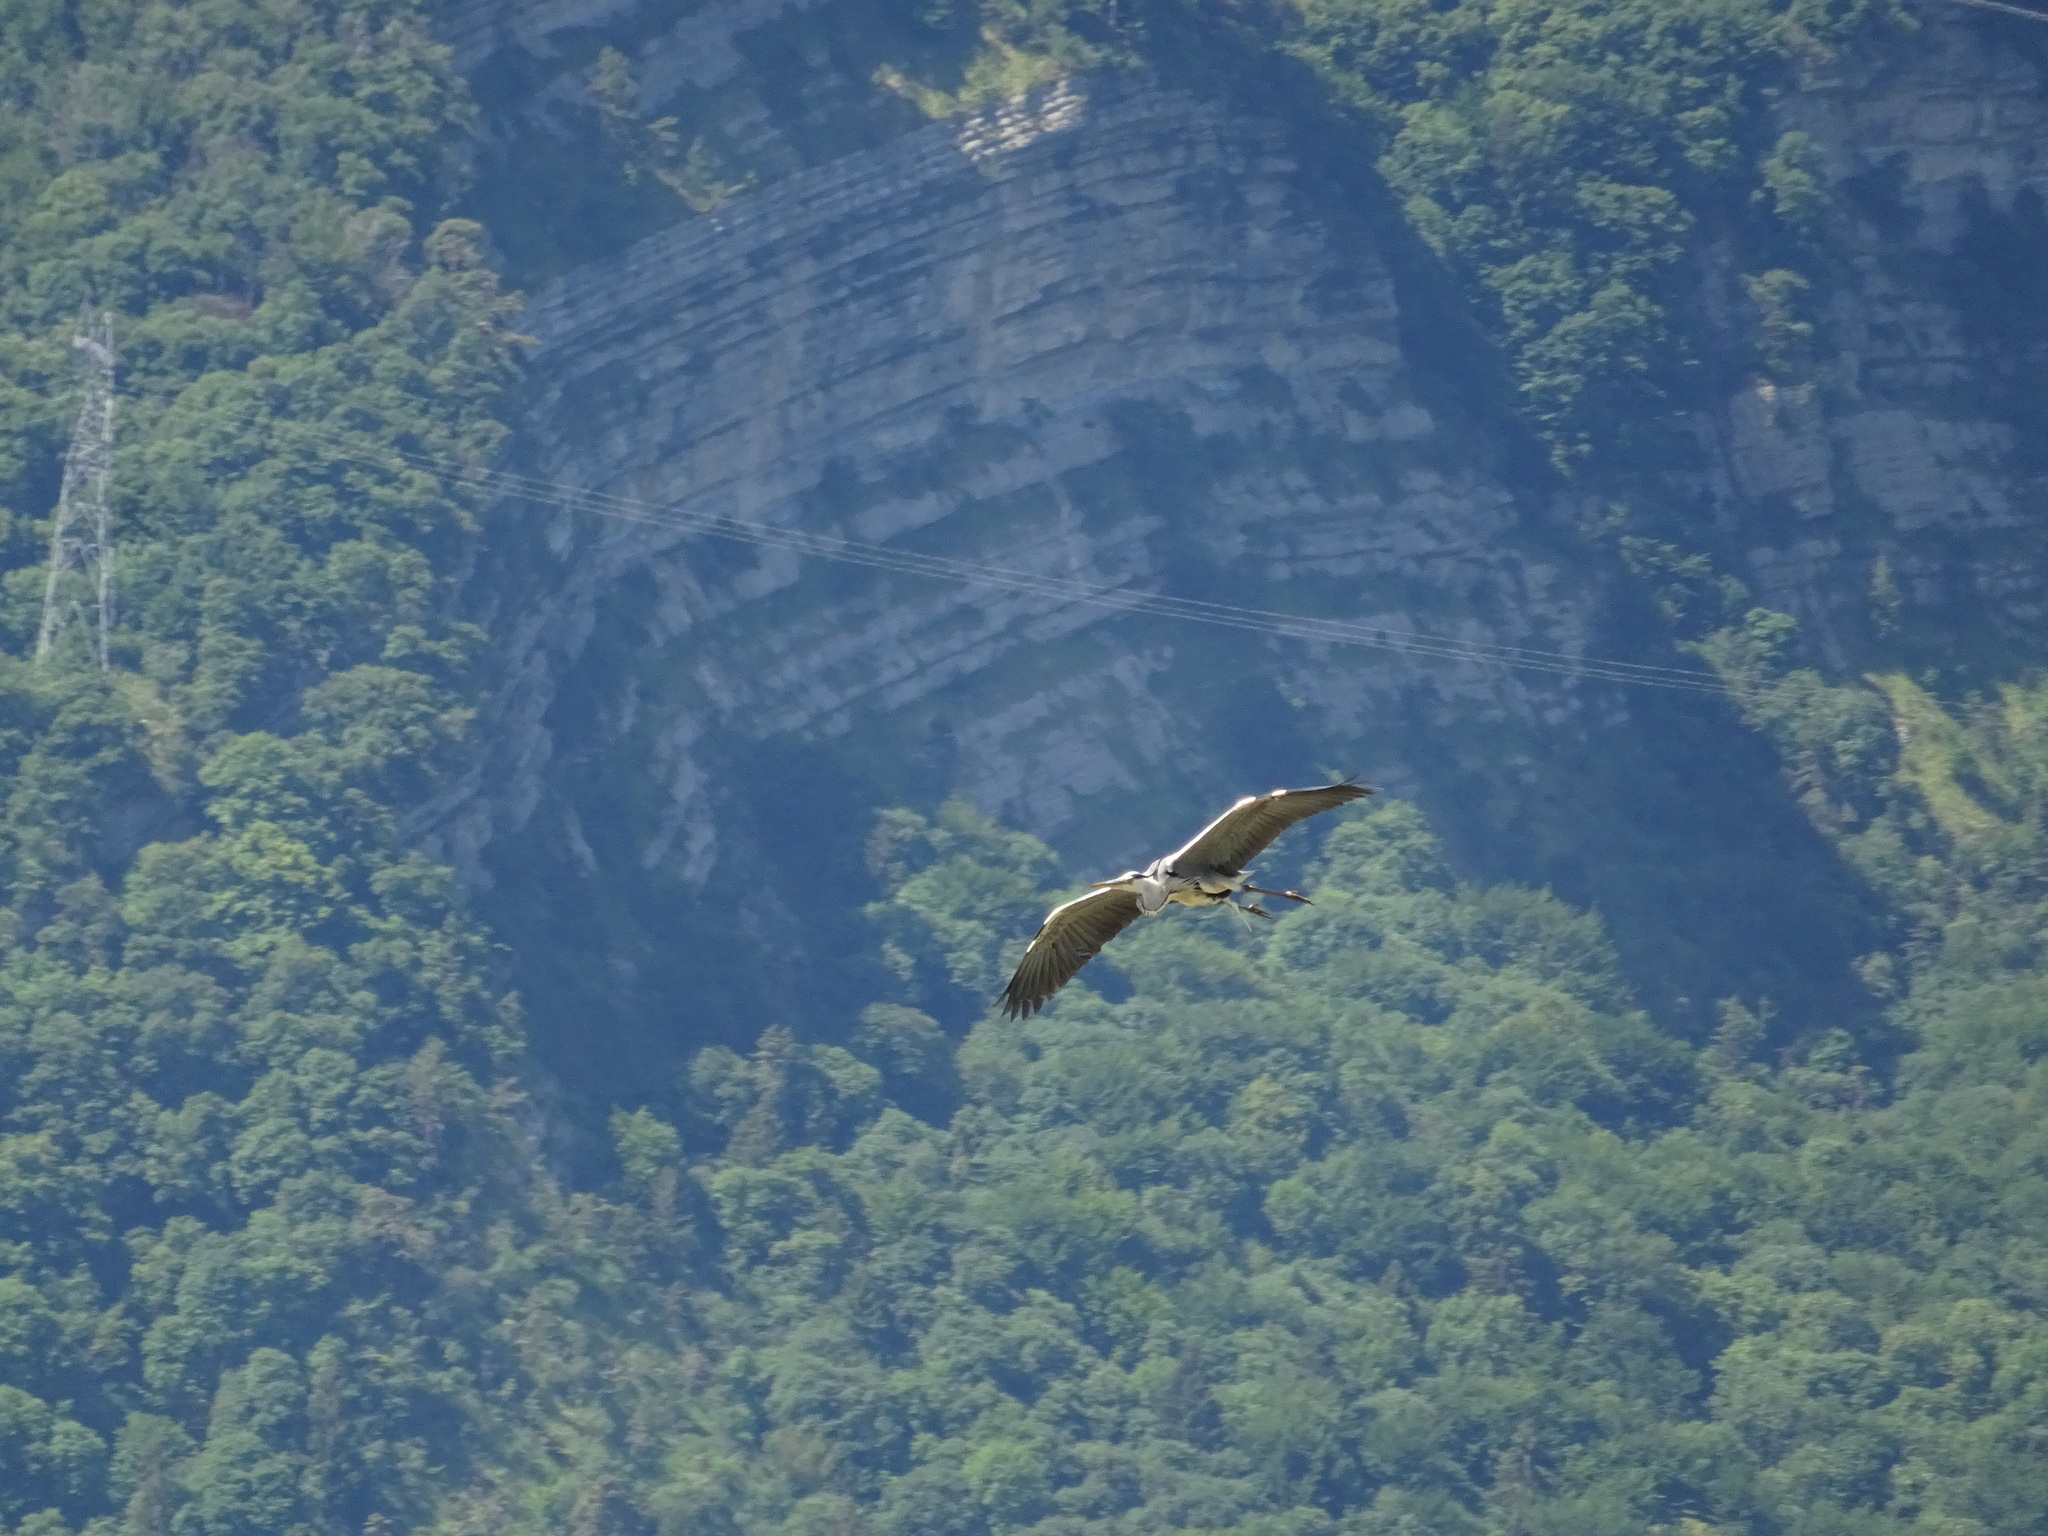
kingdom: Animalia
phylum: Chordata
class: Aves
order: Pelecaniformes
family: Ardeidae
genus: Ardea
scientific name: Ardea cinerea
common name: Grey heron
